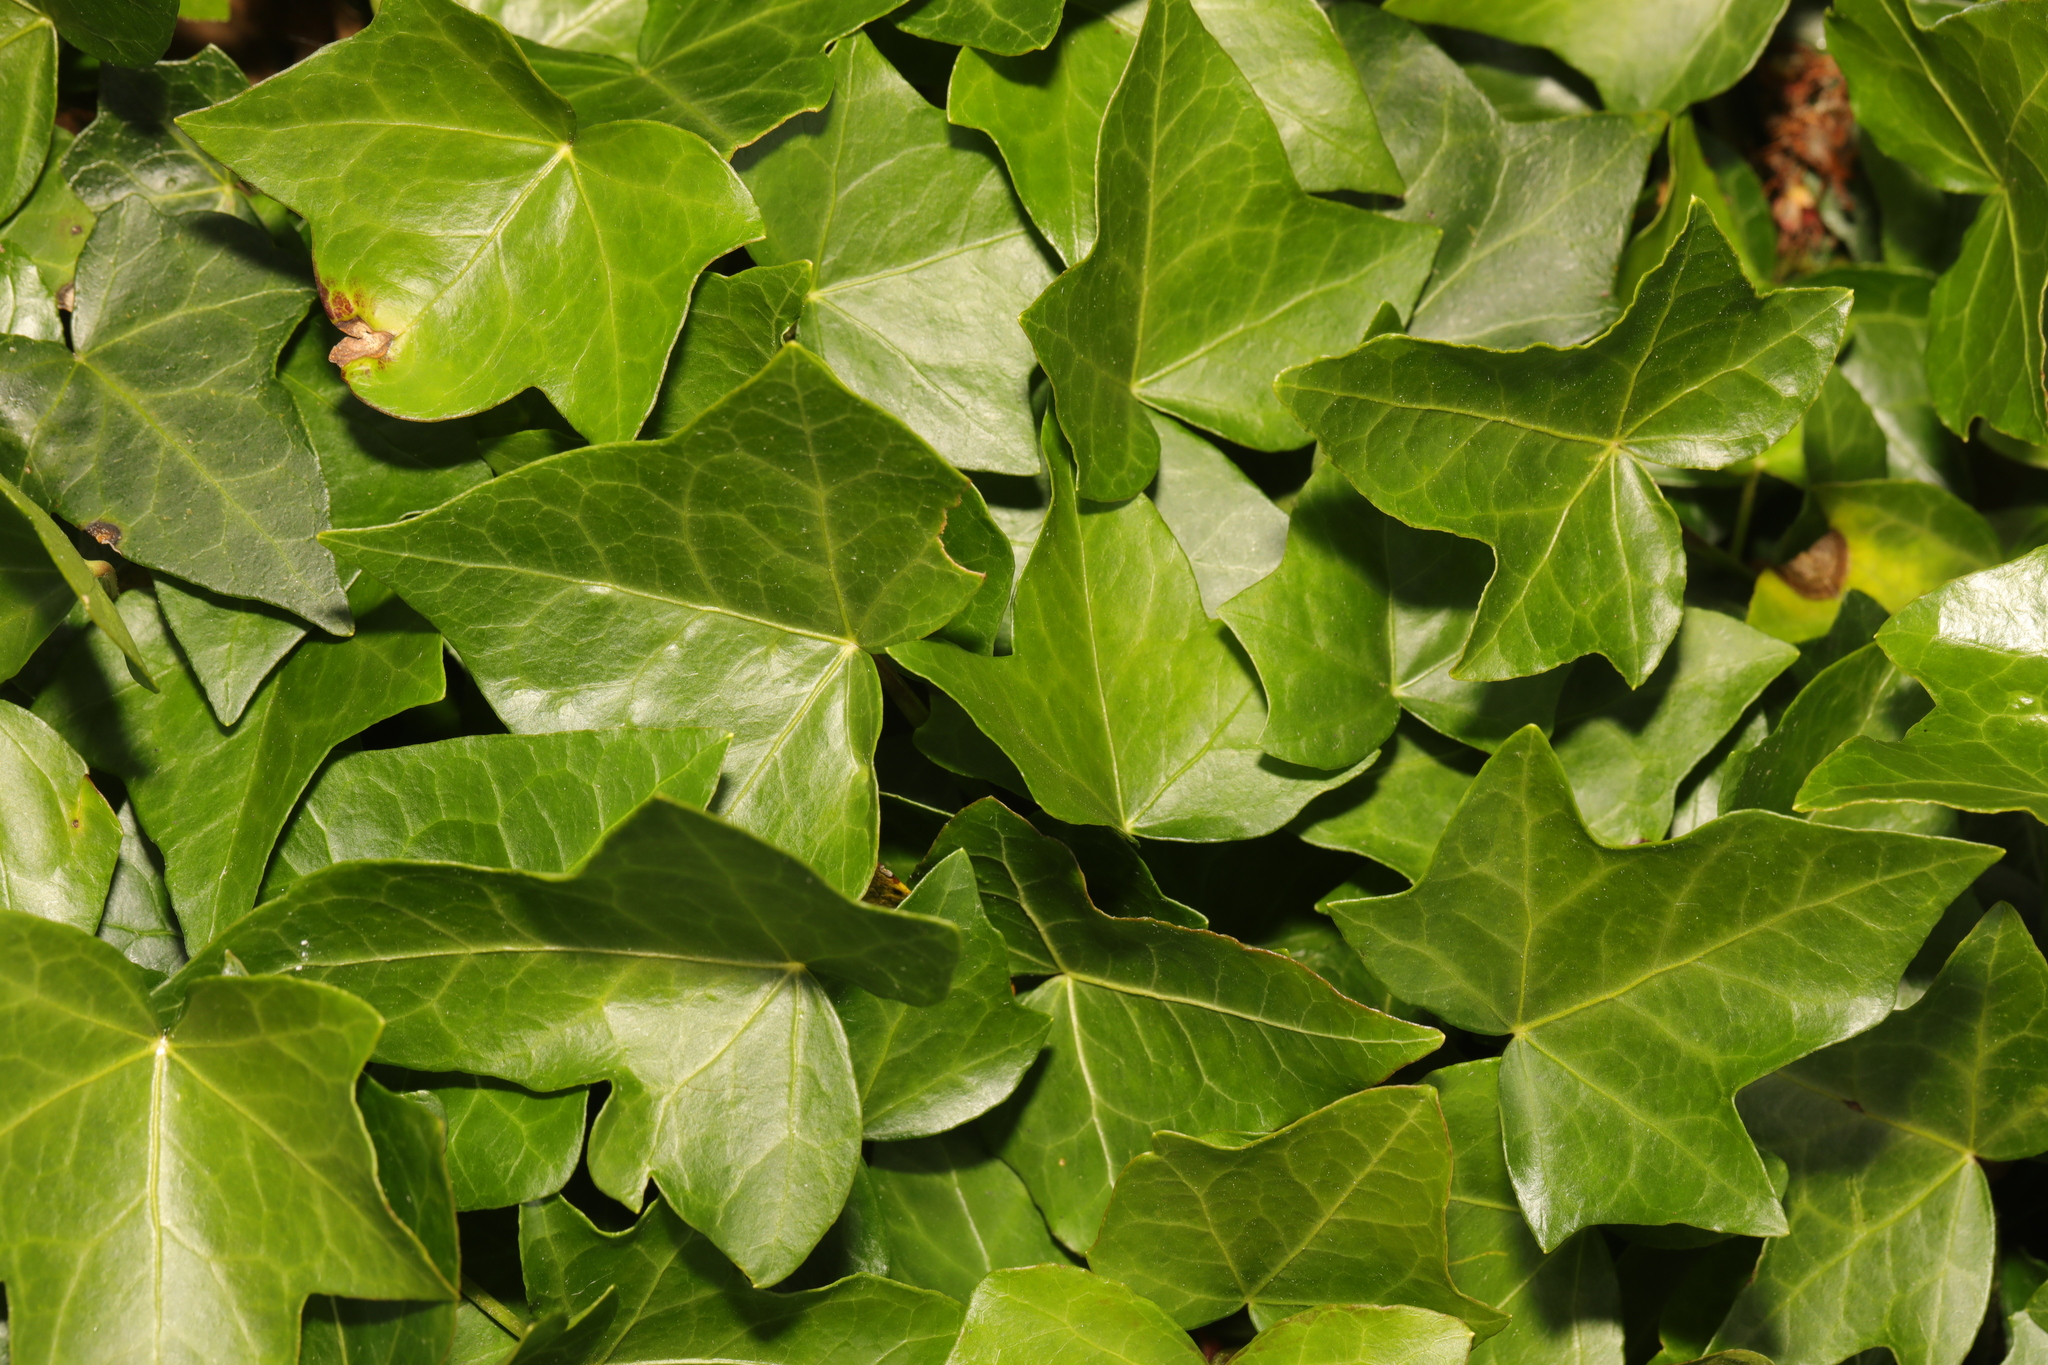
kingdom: Plantae
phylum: Tracheophyta
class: Magnoliopsida
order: Apiales
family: Araliaceae
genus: Hedera
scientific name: Hedera helix
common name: Ivy
